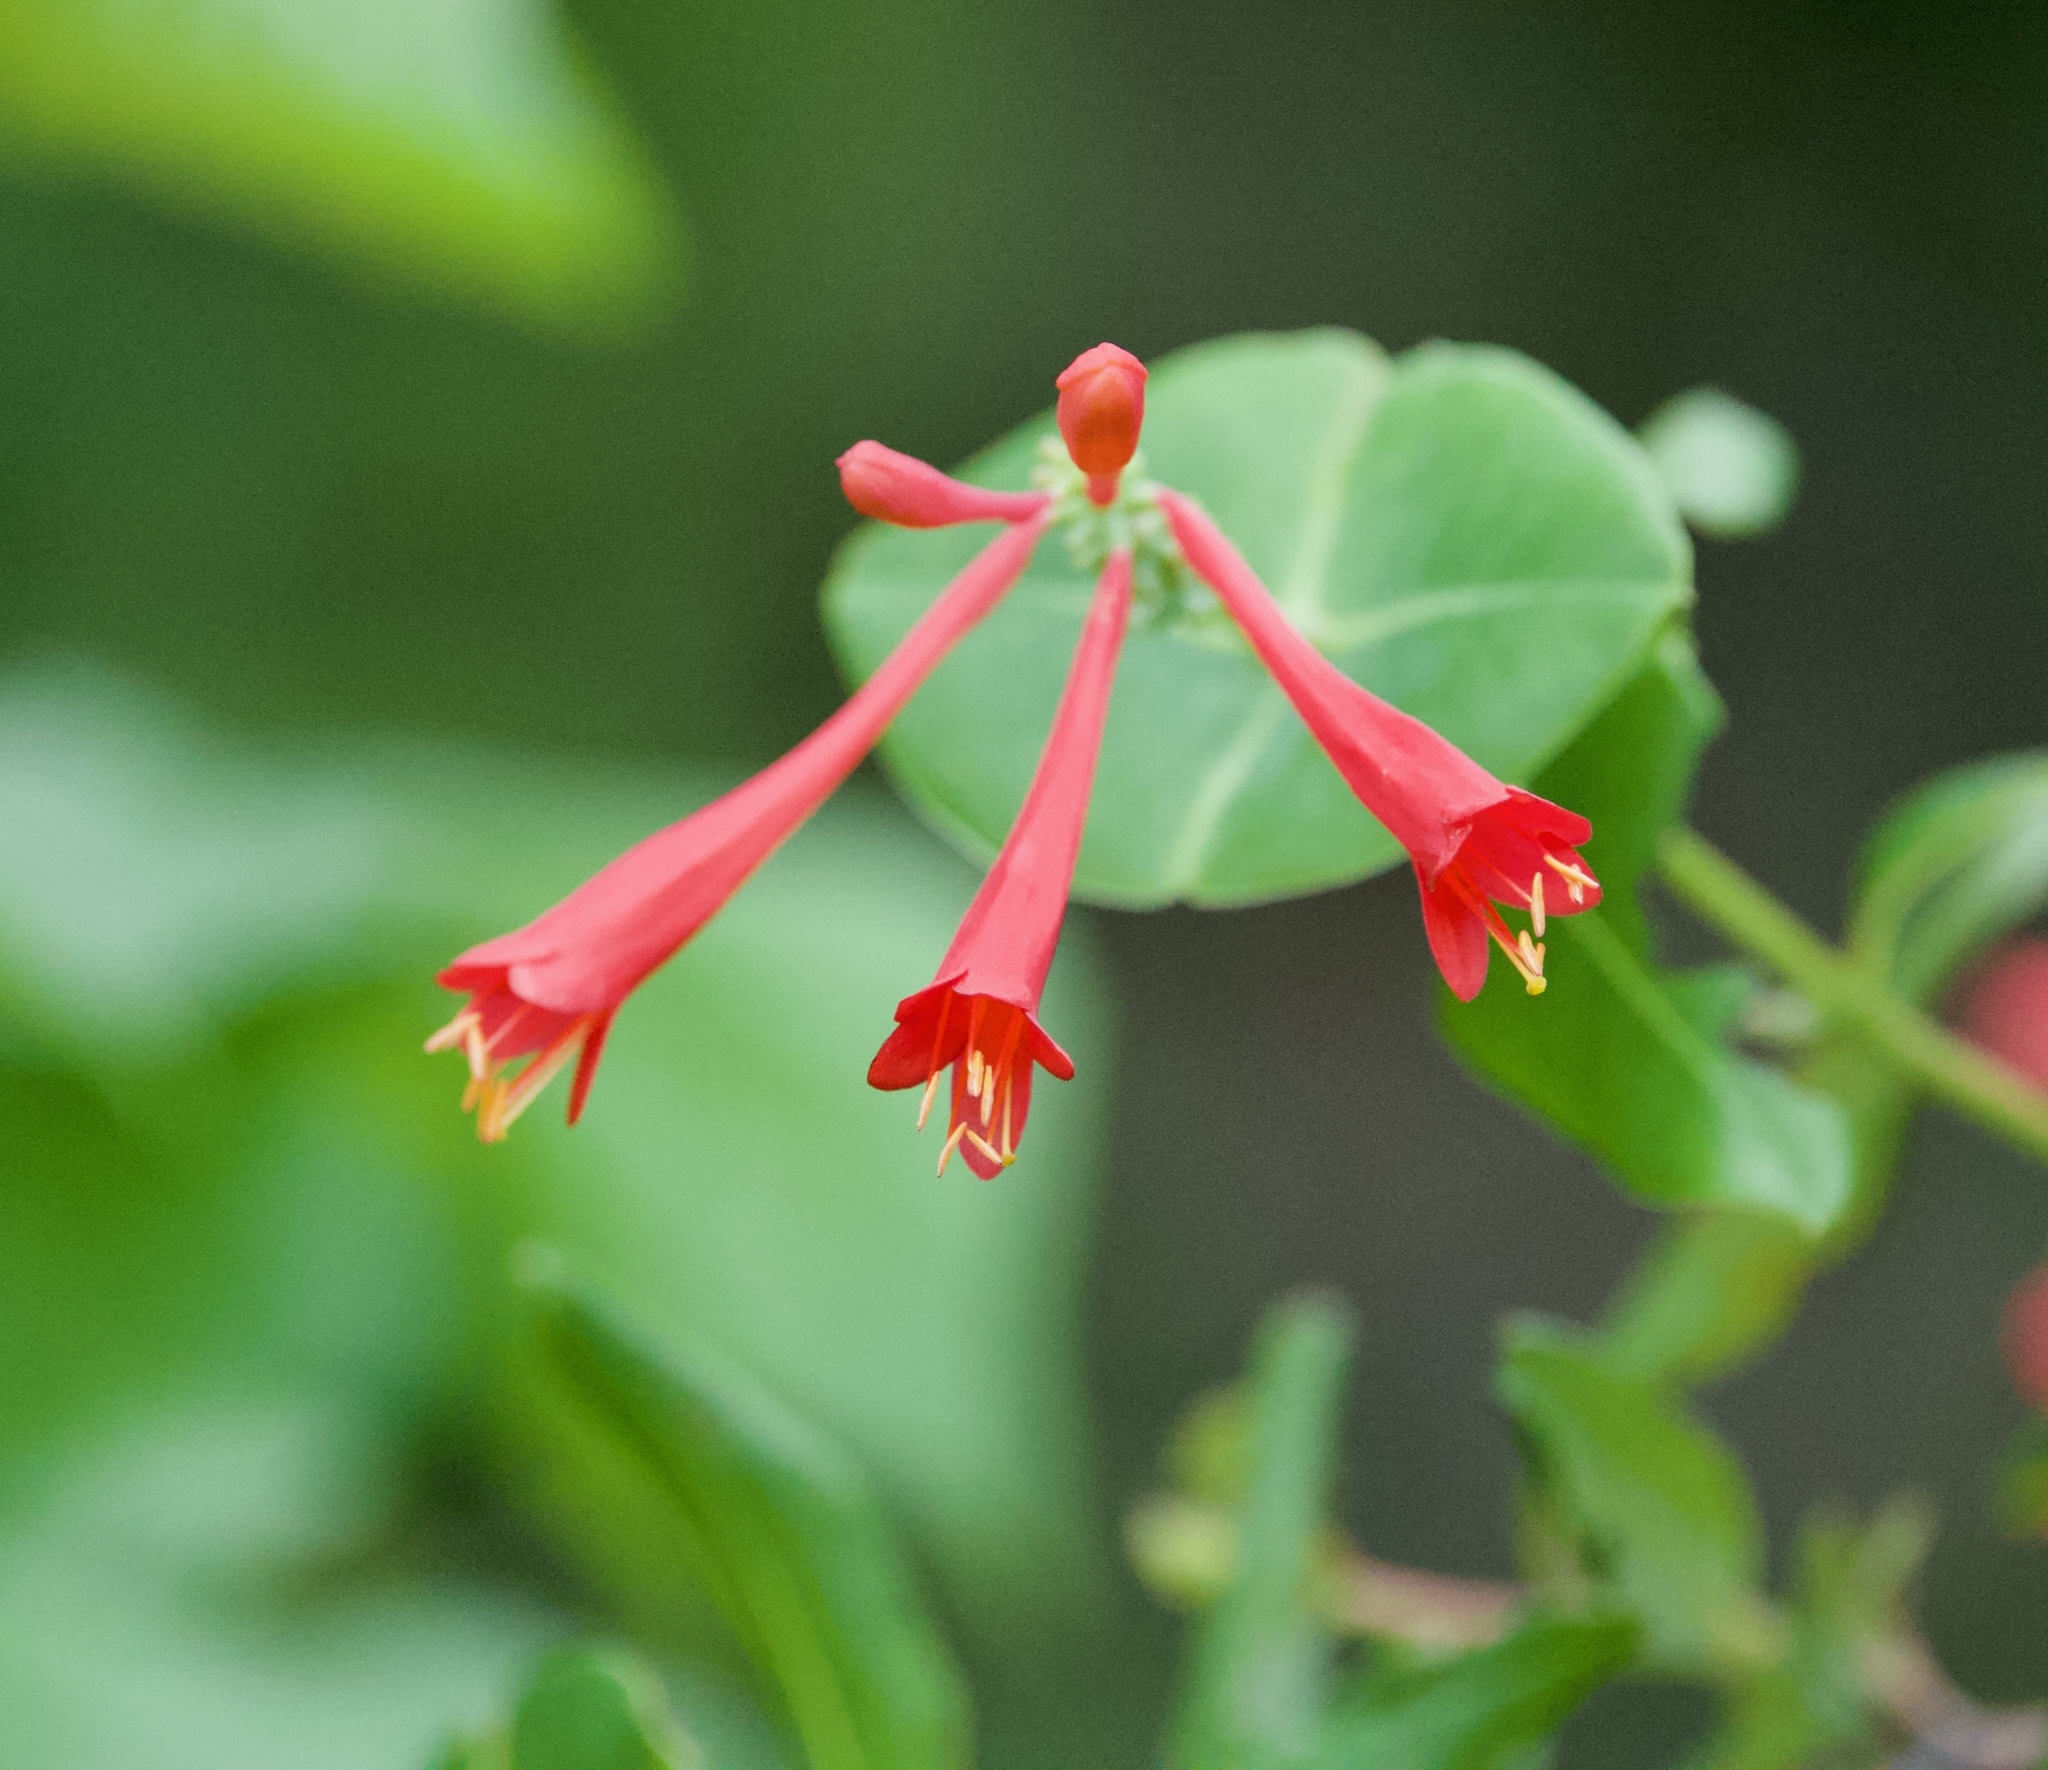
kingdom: Plantae
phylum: Tracheophyta
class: Magnoliopsida
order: Dipsacales
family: Caprifoliaceae
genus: Lonicera
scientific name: Lonicera sempervirens
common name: Coral honeysuckle
